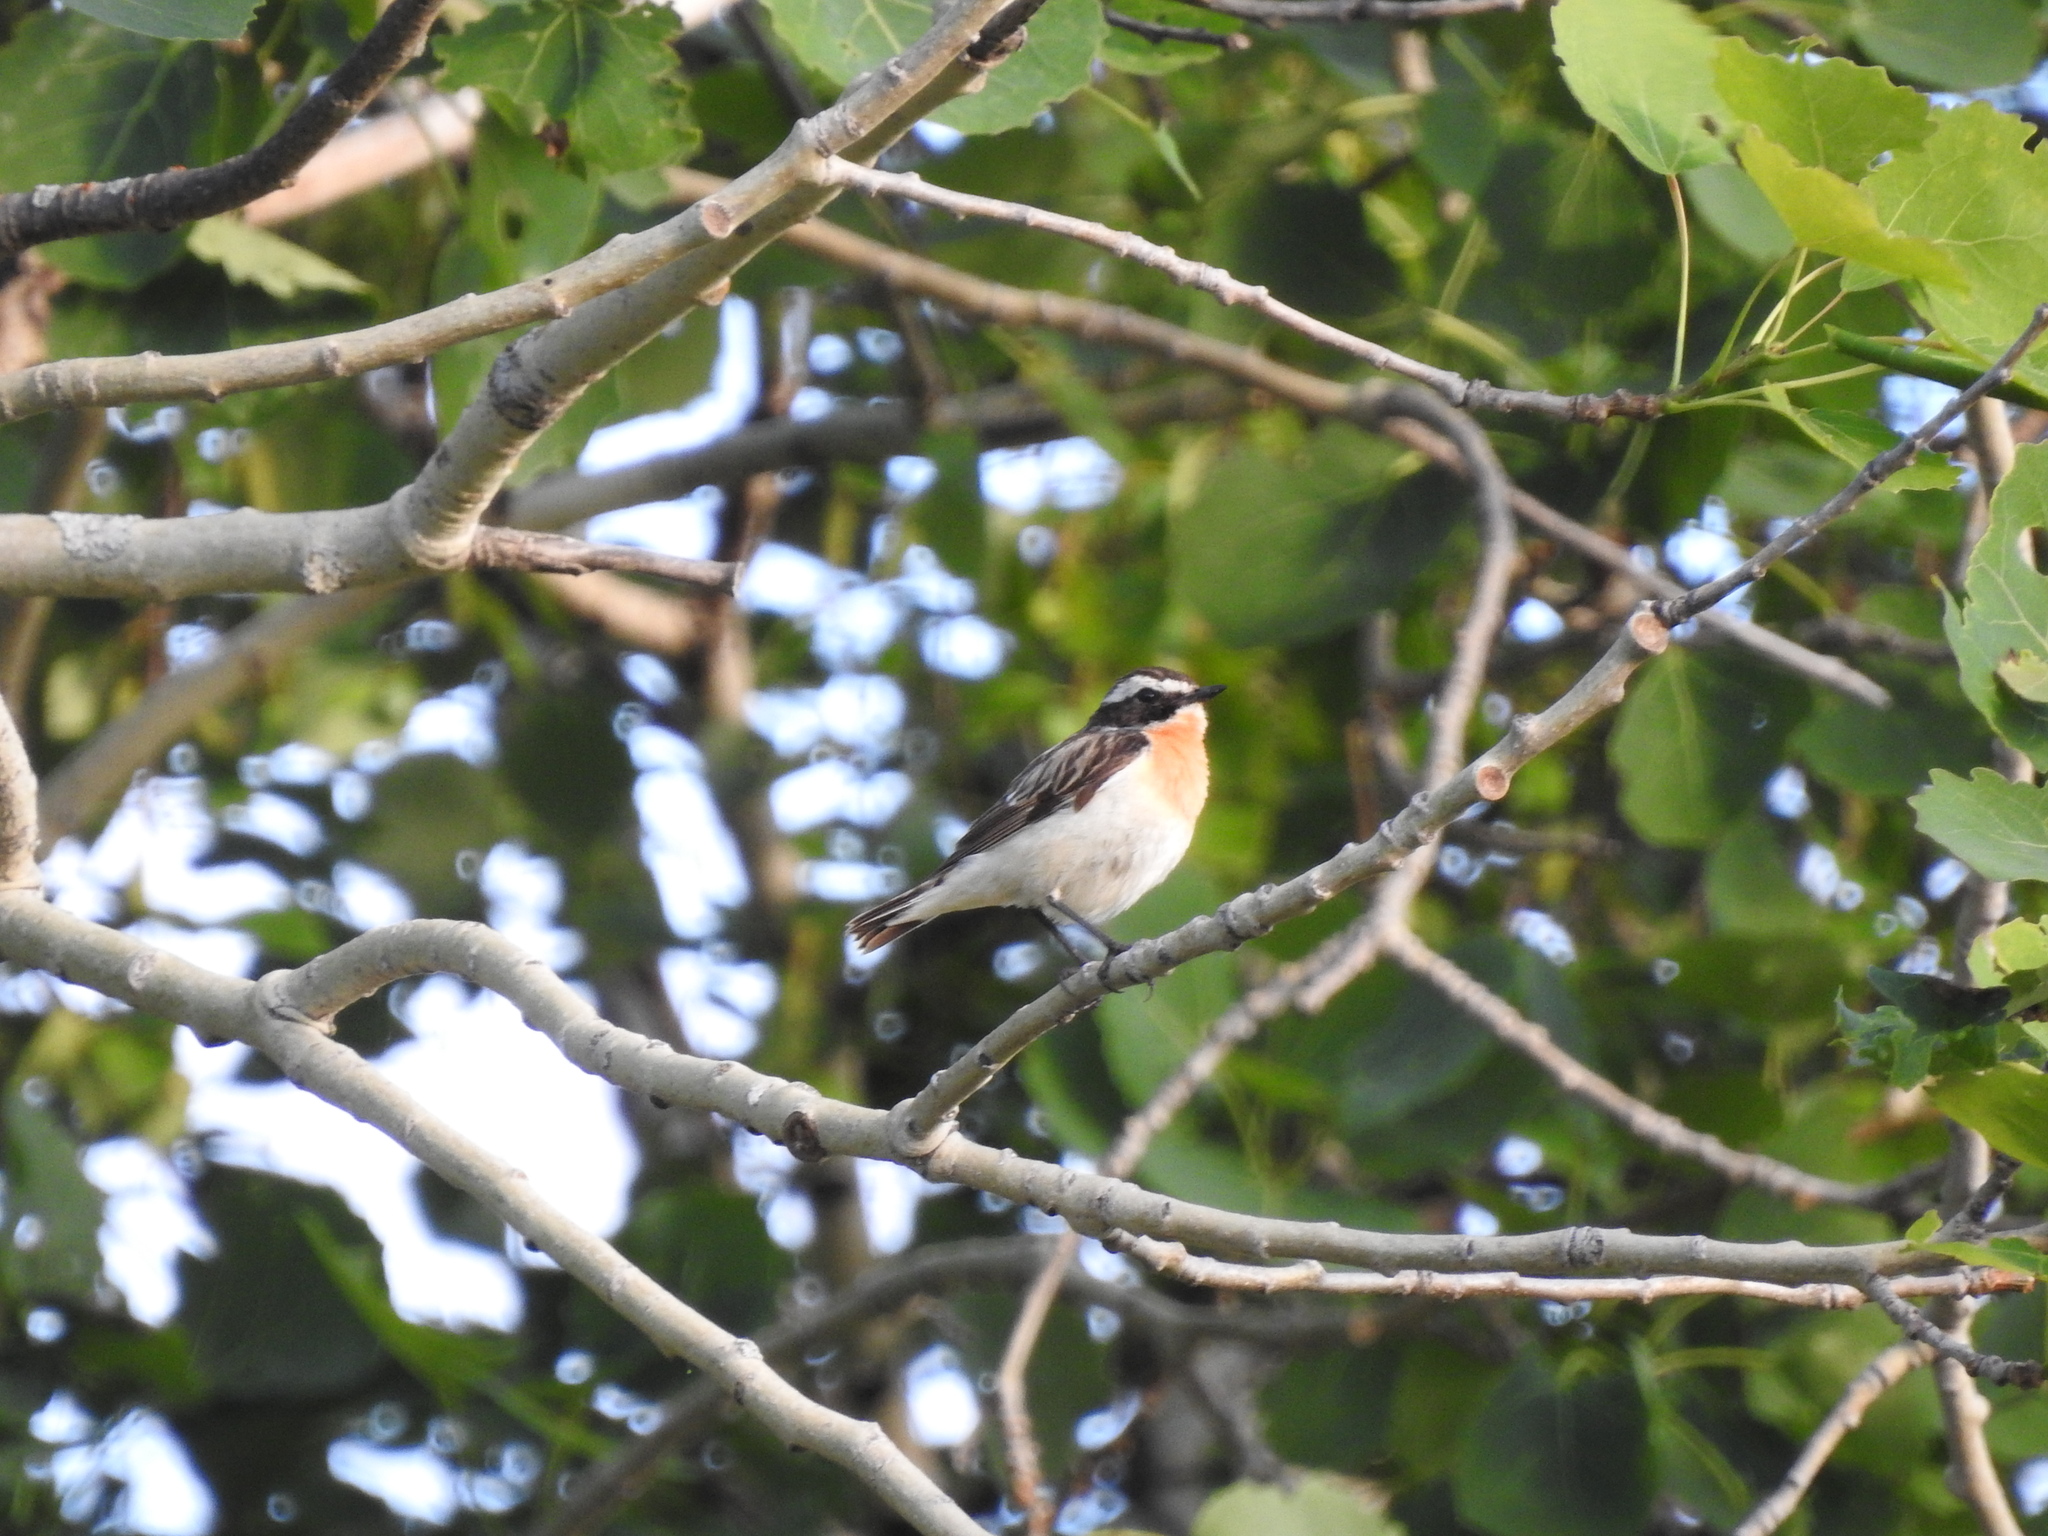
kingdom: Animalia
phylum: Chordata
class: Aves
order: Passeriformes
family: Muscicapidae
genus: Saxicola
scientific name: Saxicola rubetra
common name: Whinchat
